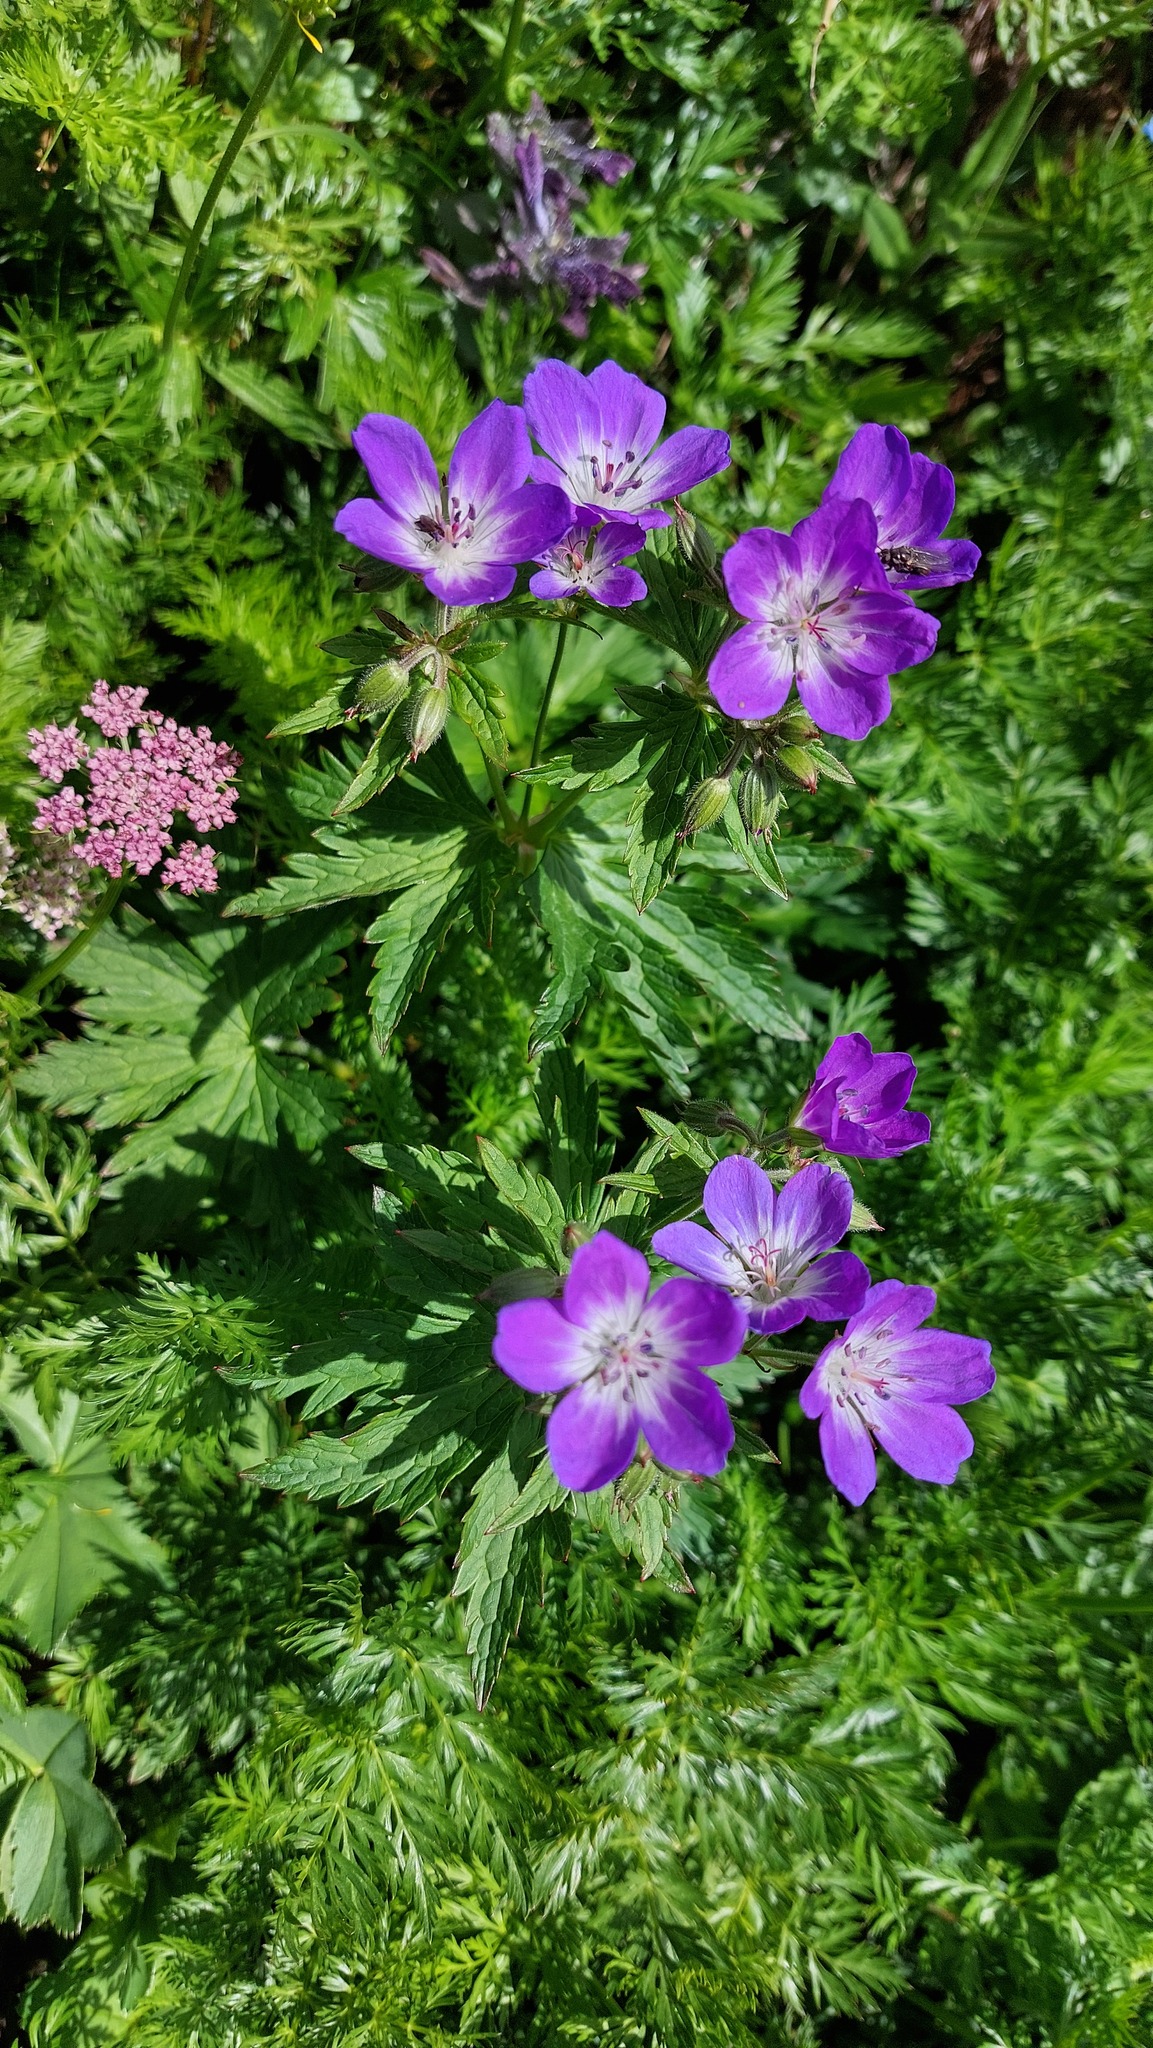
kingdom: Plantae
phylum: Tracheophyta
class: Magnoliopsida
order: Geraniales
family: Geraniaceae
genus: Geranium
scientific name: Geranium sylvaticum
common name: Wood crane's-bill
